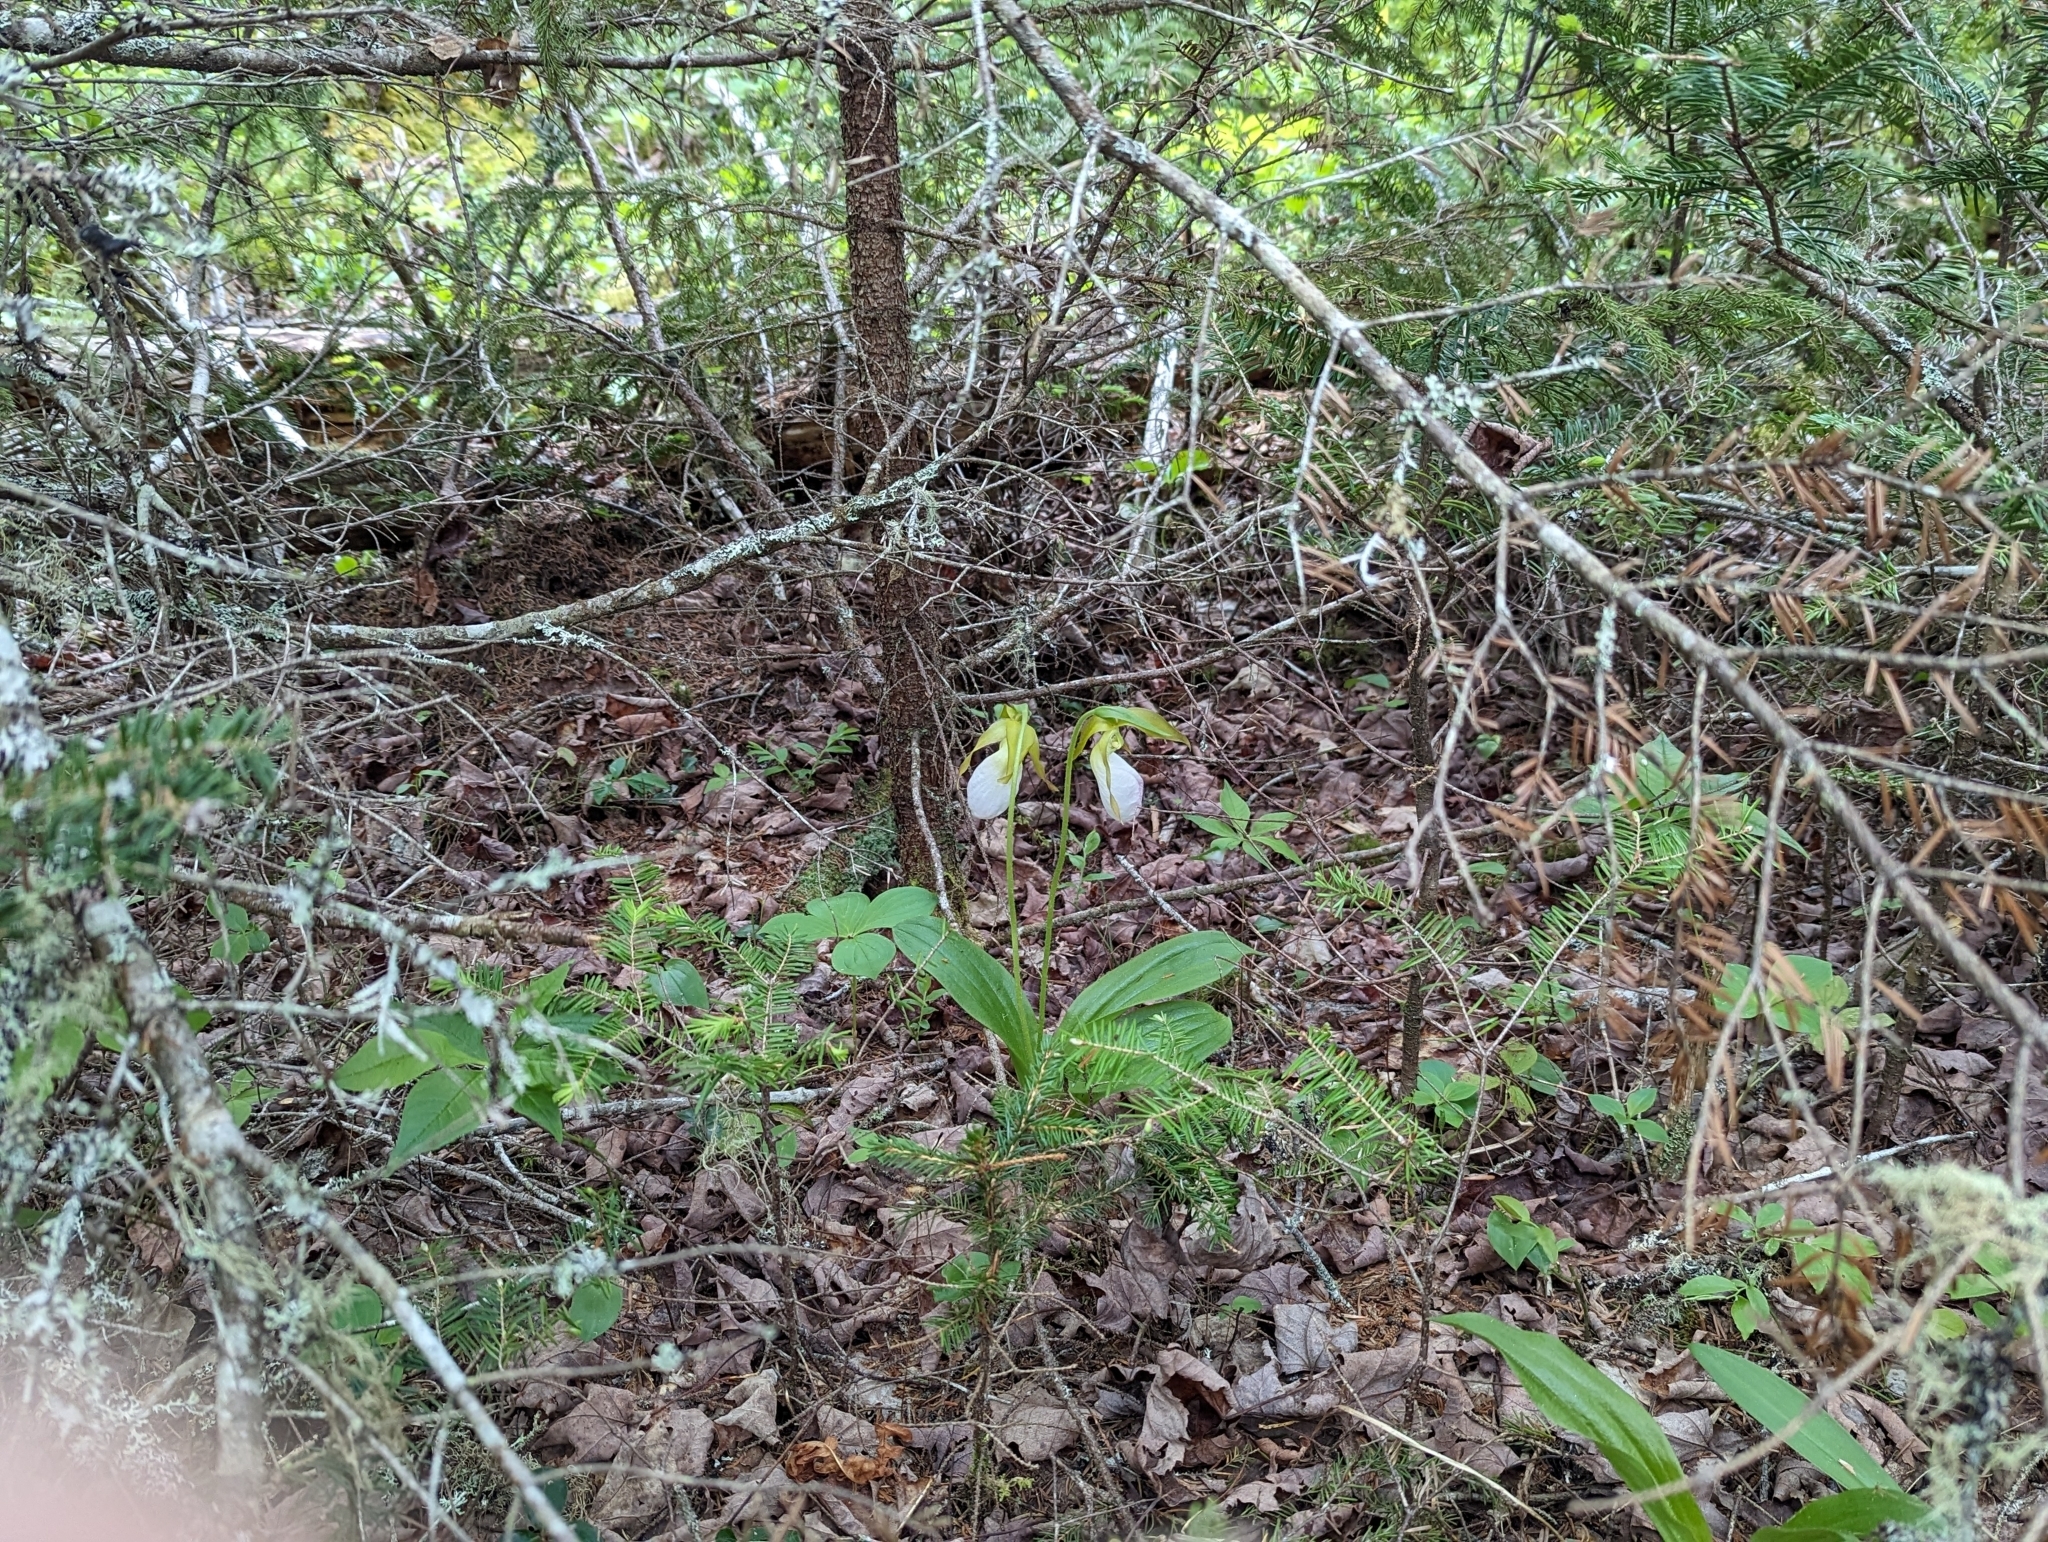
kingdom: Plantae
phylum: Tracheophyta
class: Liliopsida
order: Asparagales
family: Orchidaceae
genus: Cypripedium
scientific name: Cypripedium acaule
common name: Pink lady's-slipper
